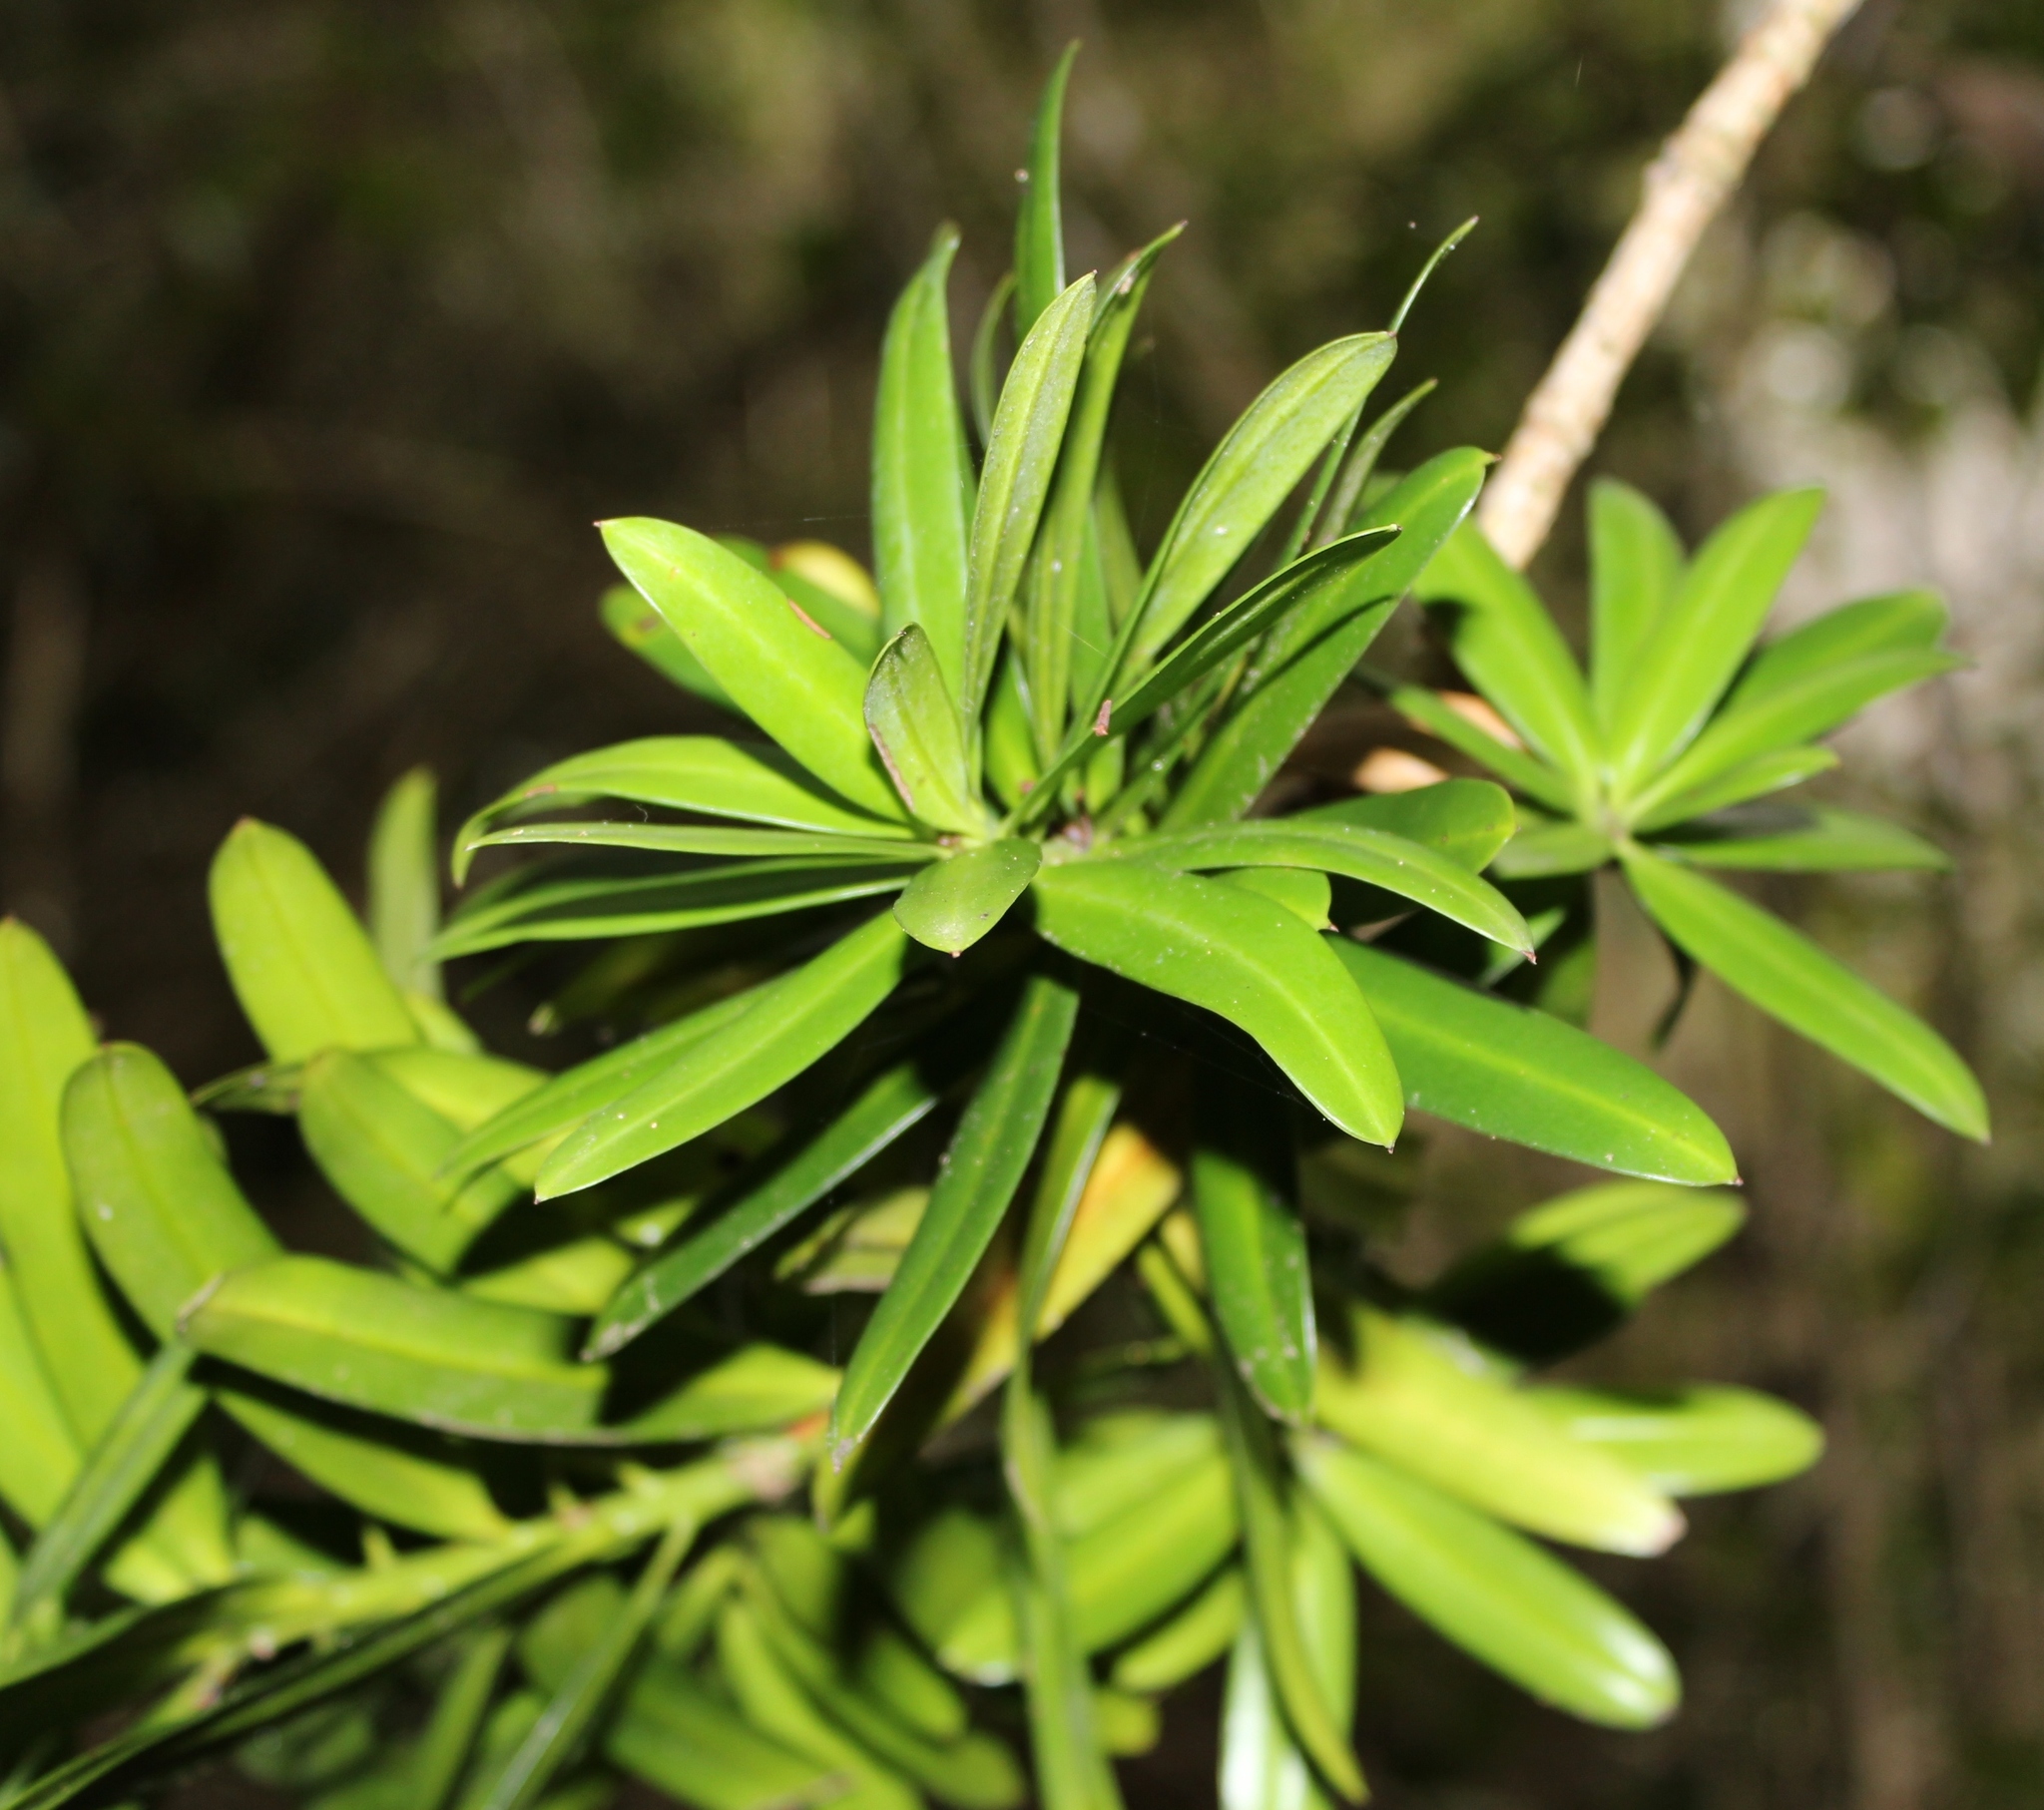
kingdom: Plantae
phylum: Tracheophyta
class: Pinopsida
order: Pinales
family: Podocarpaceae
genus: Podocarpus
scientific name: Podocarpus latifolius
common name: True yellowwood
